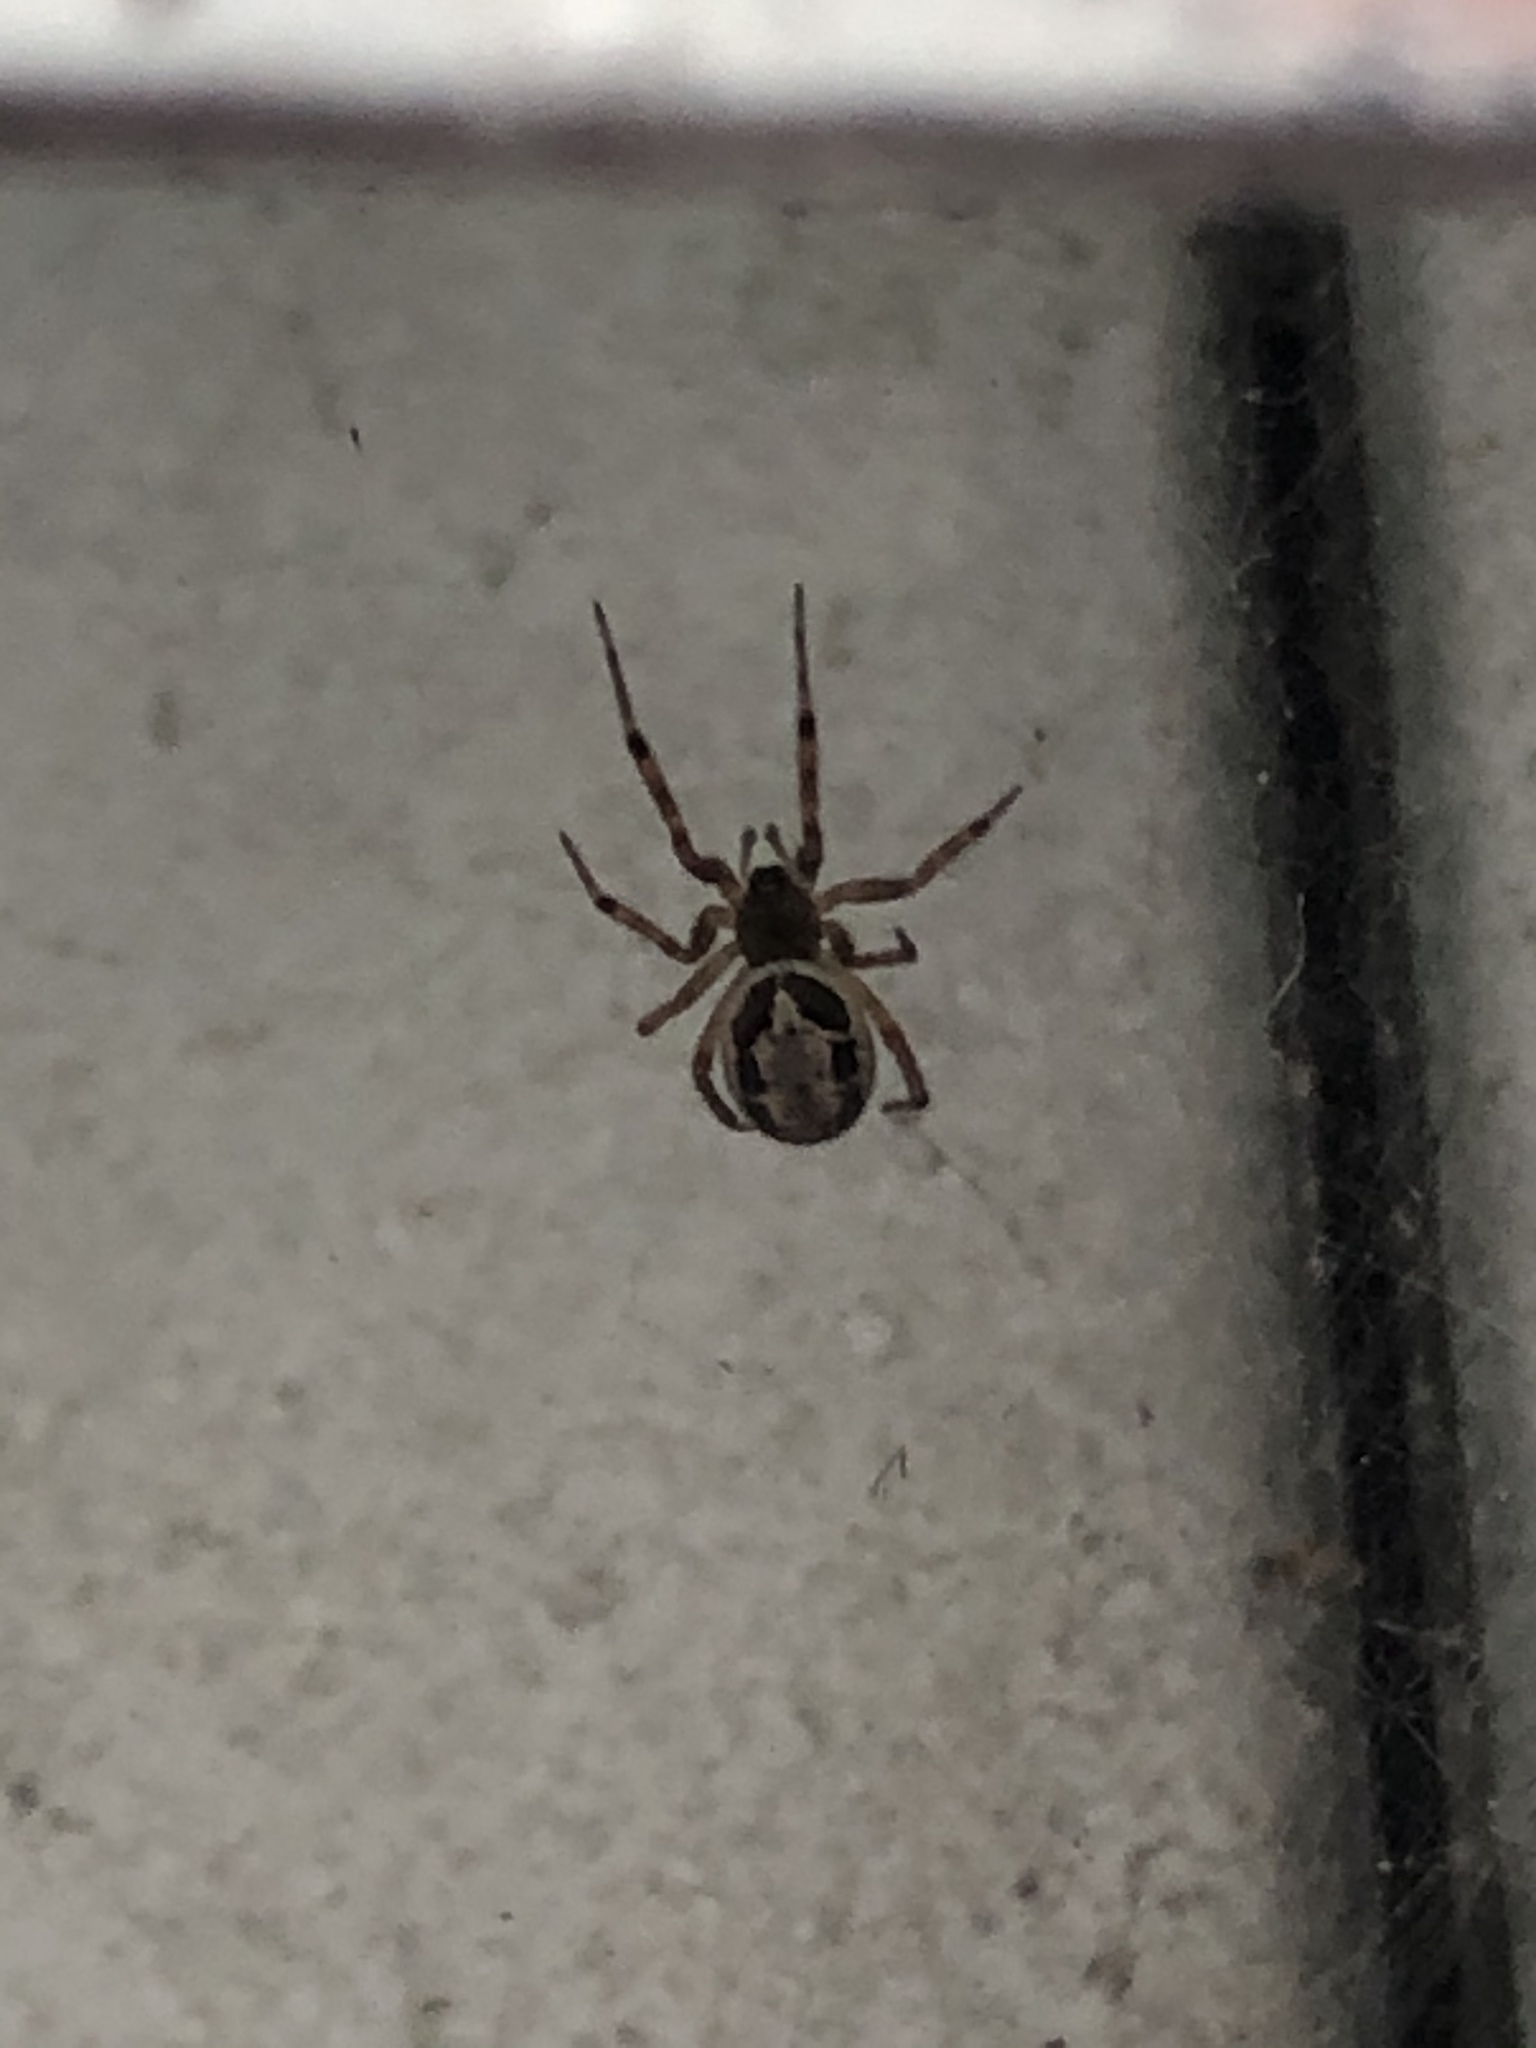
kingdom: Animalia
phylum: Arthropoda
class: Arachnida
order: Araneae
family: Theridiidae
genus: Steatoda
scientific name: Steatoda nobilis
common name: Cobweb weaver
